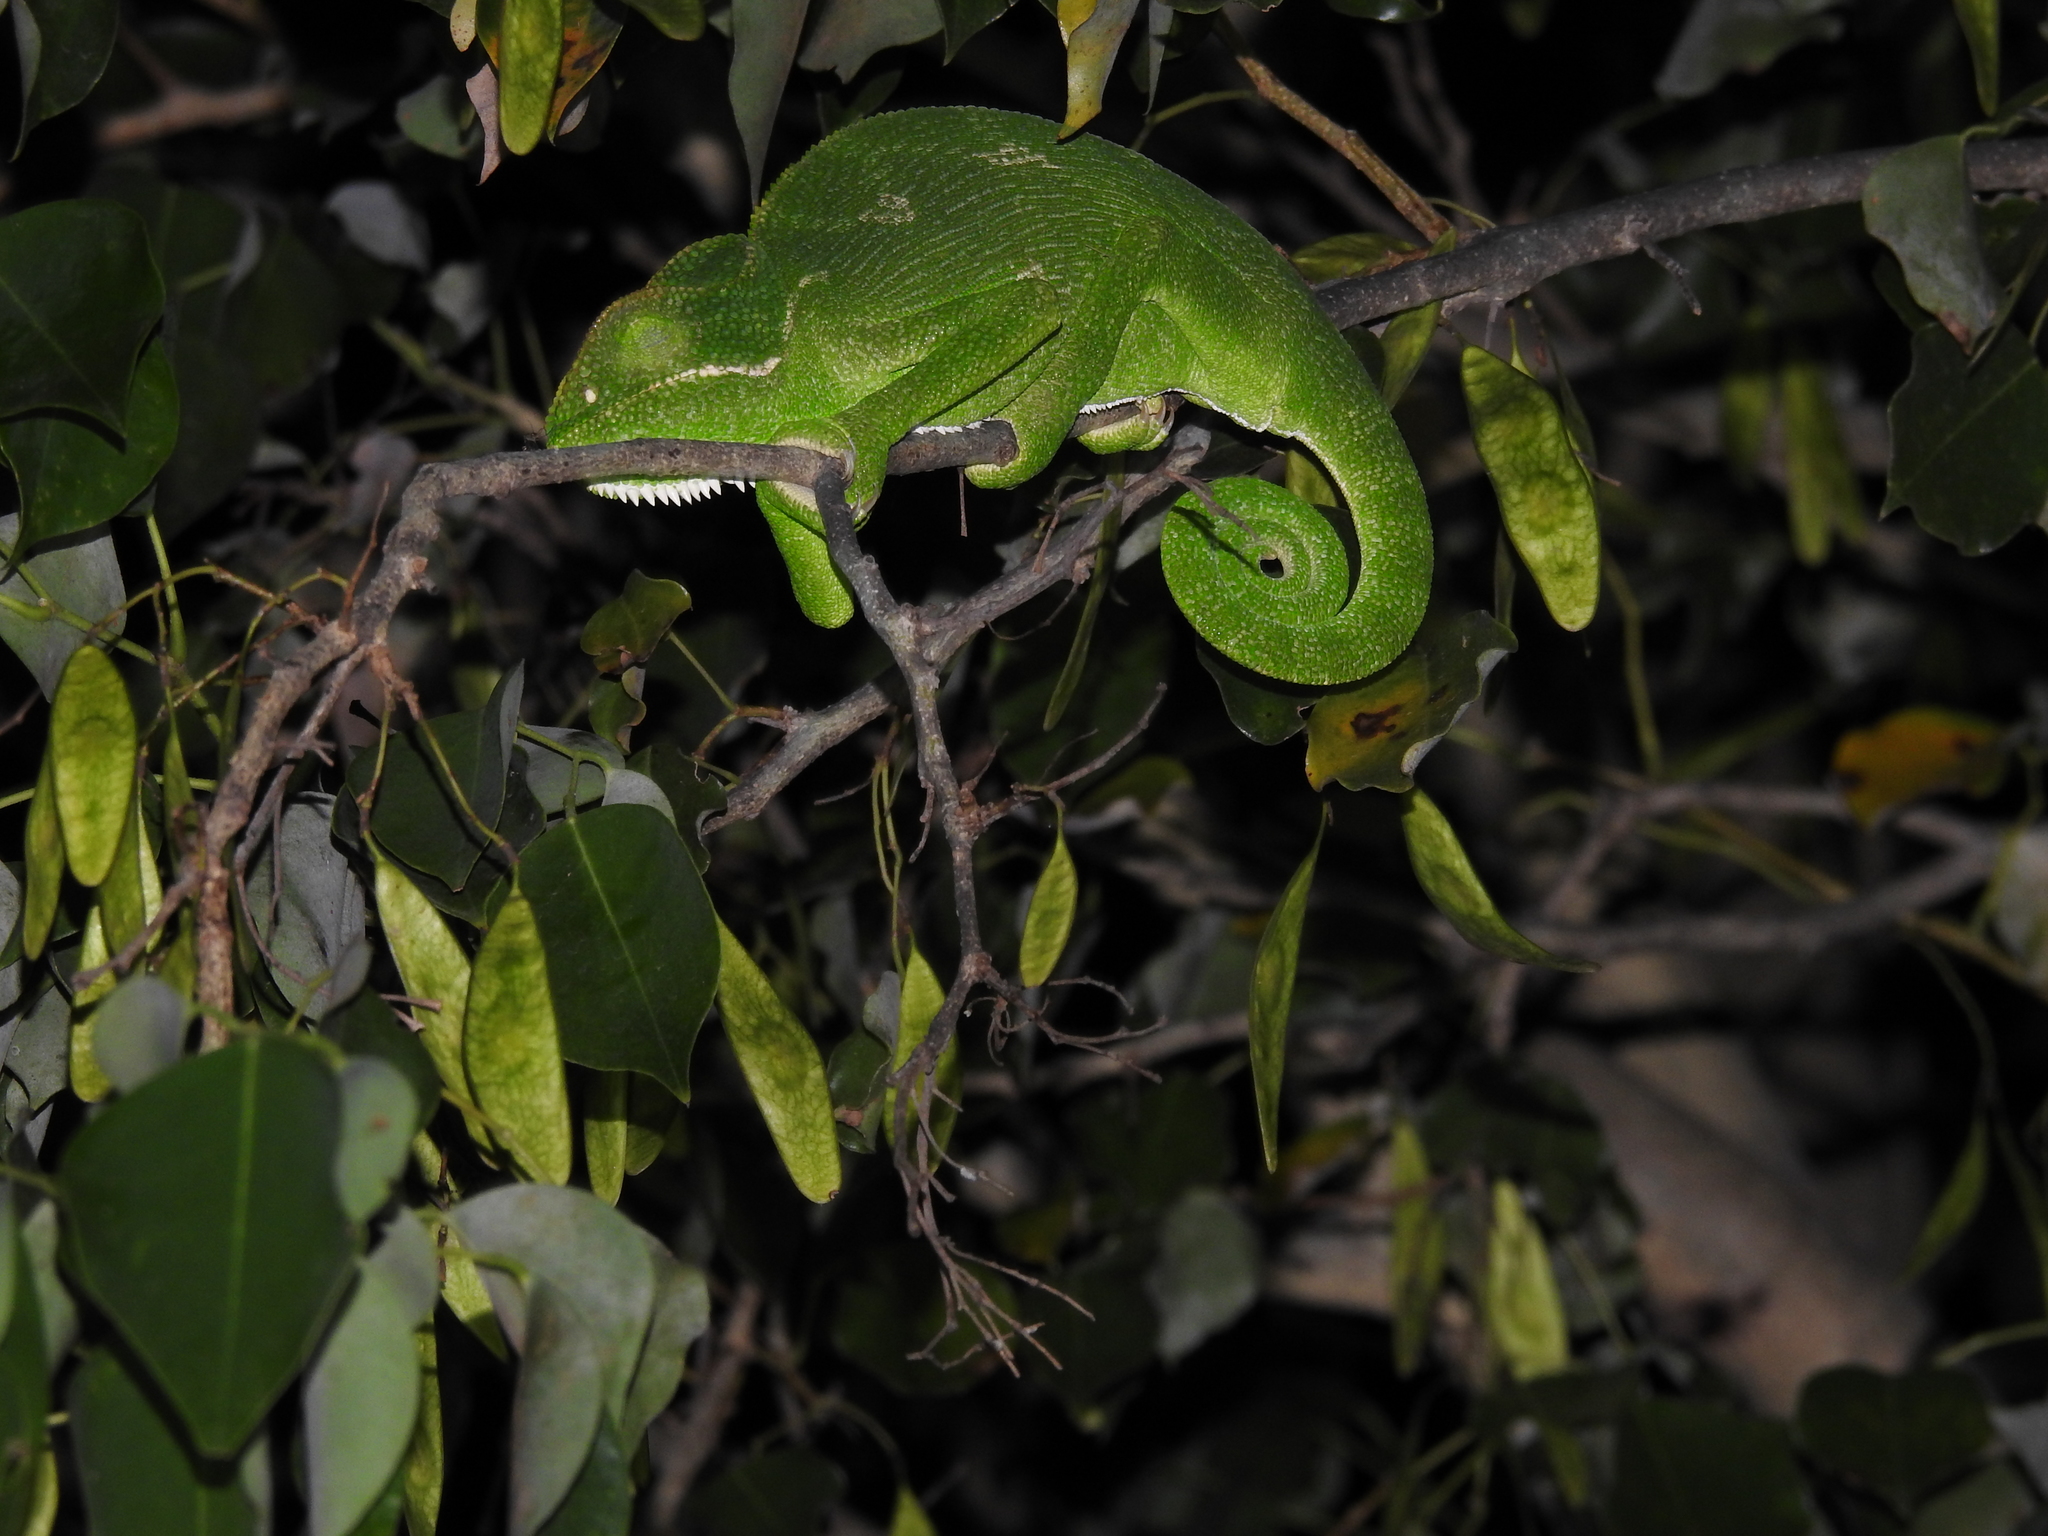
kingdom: Animalia
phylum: Chordata
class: Squamata
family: Chamaeleonidae
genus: Chamaeleo
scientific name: Chamaeleo zeylanicus
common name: Indian chameleon
